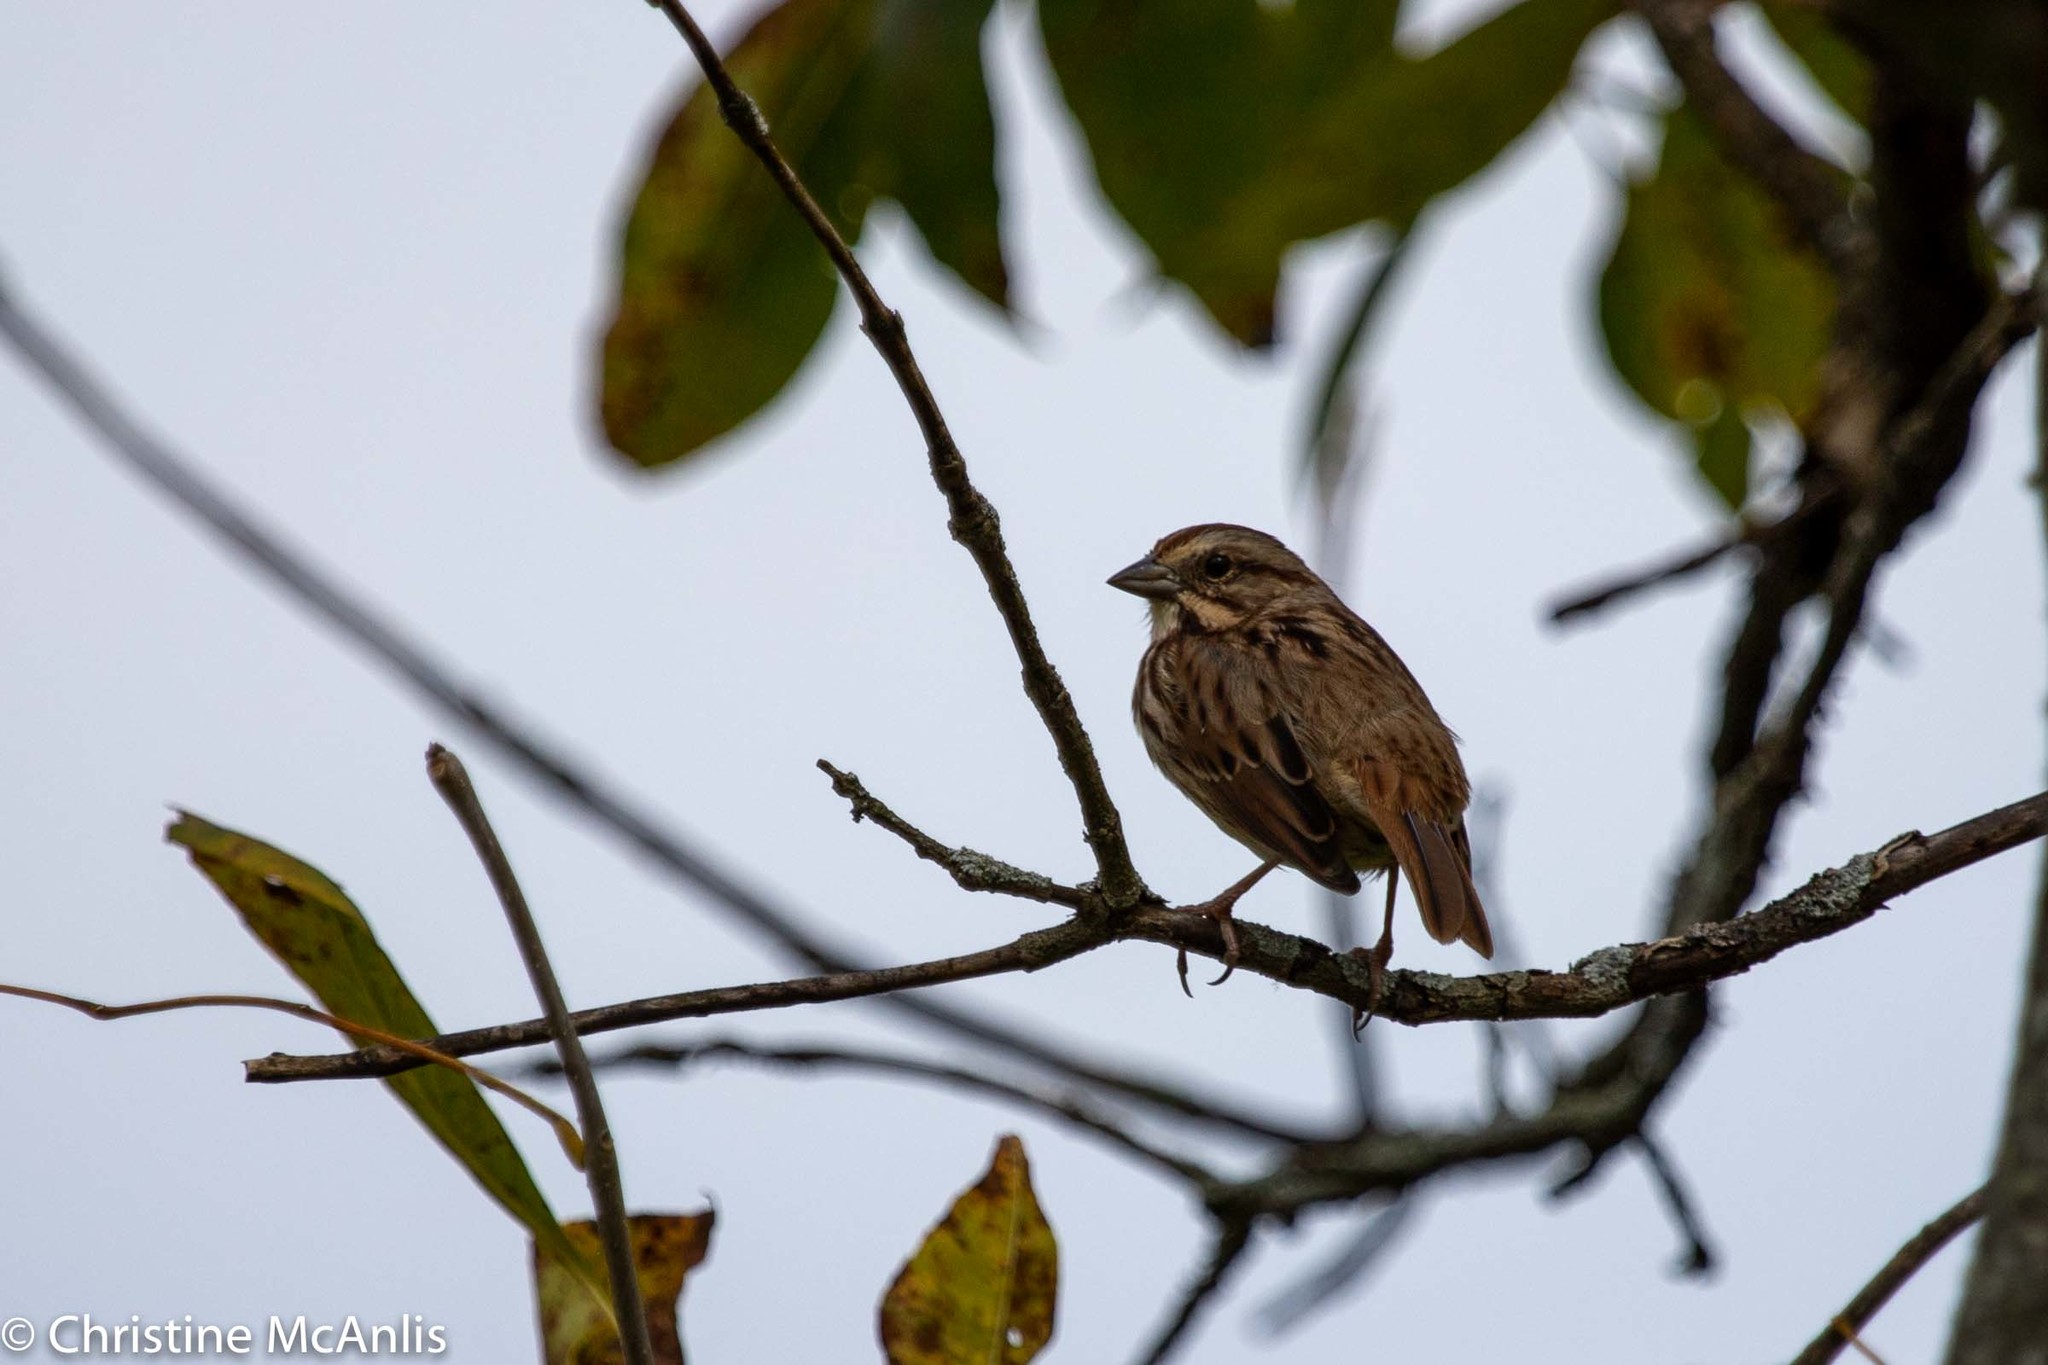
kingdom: Animalia
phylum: Chordata
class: Aves
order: Passeriformes
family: Passerellidae
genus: Melospiza
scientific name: Melospiza melodia
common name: Song sparrow
